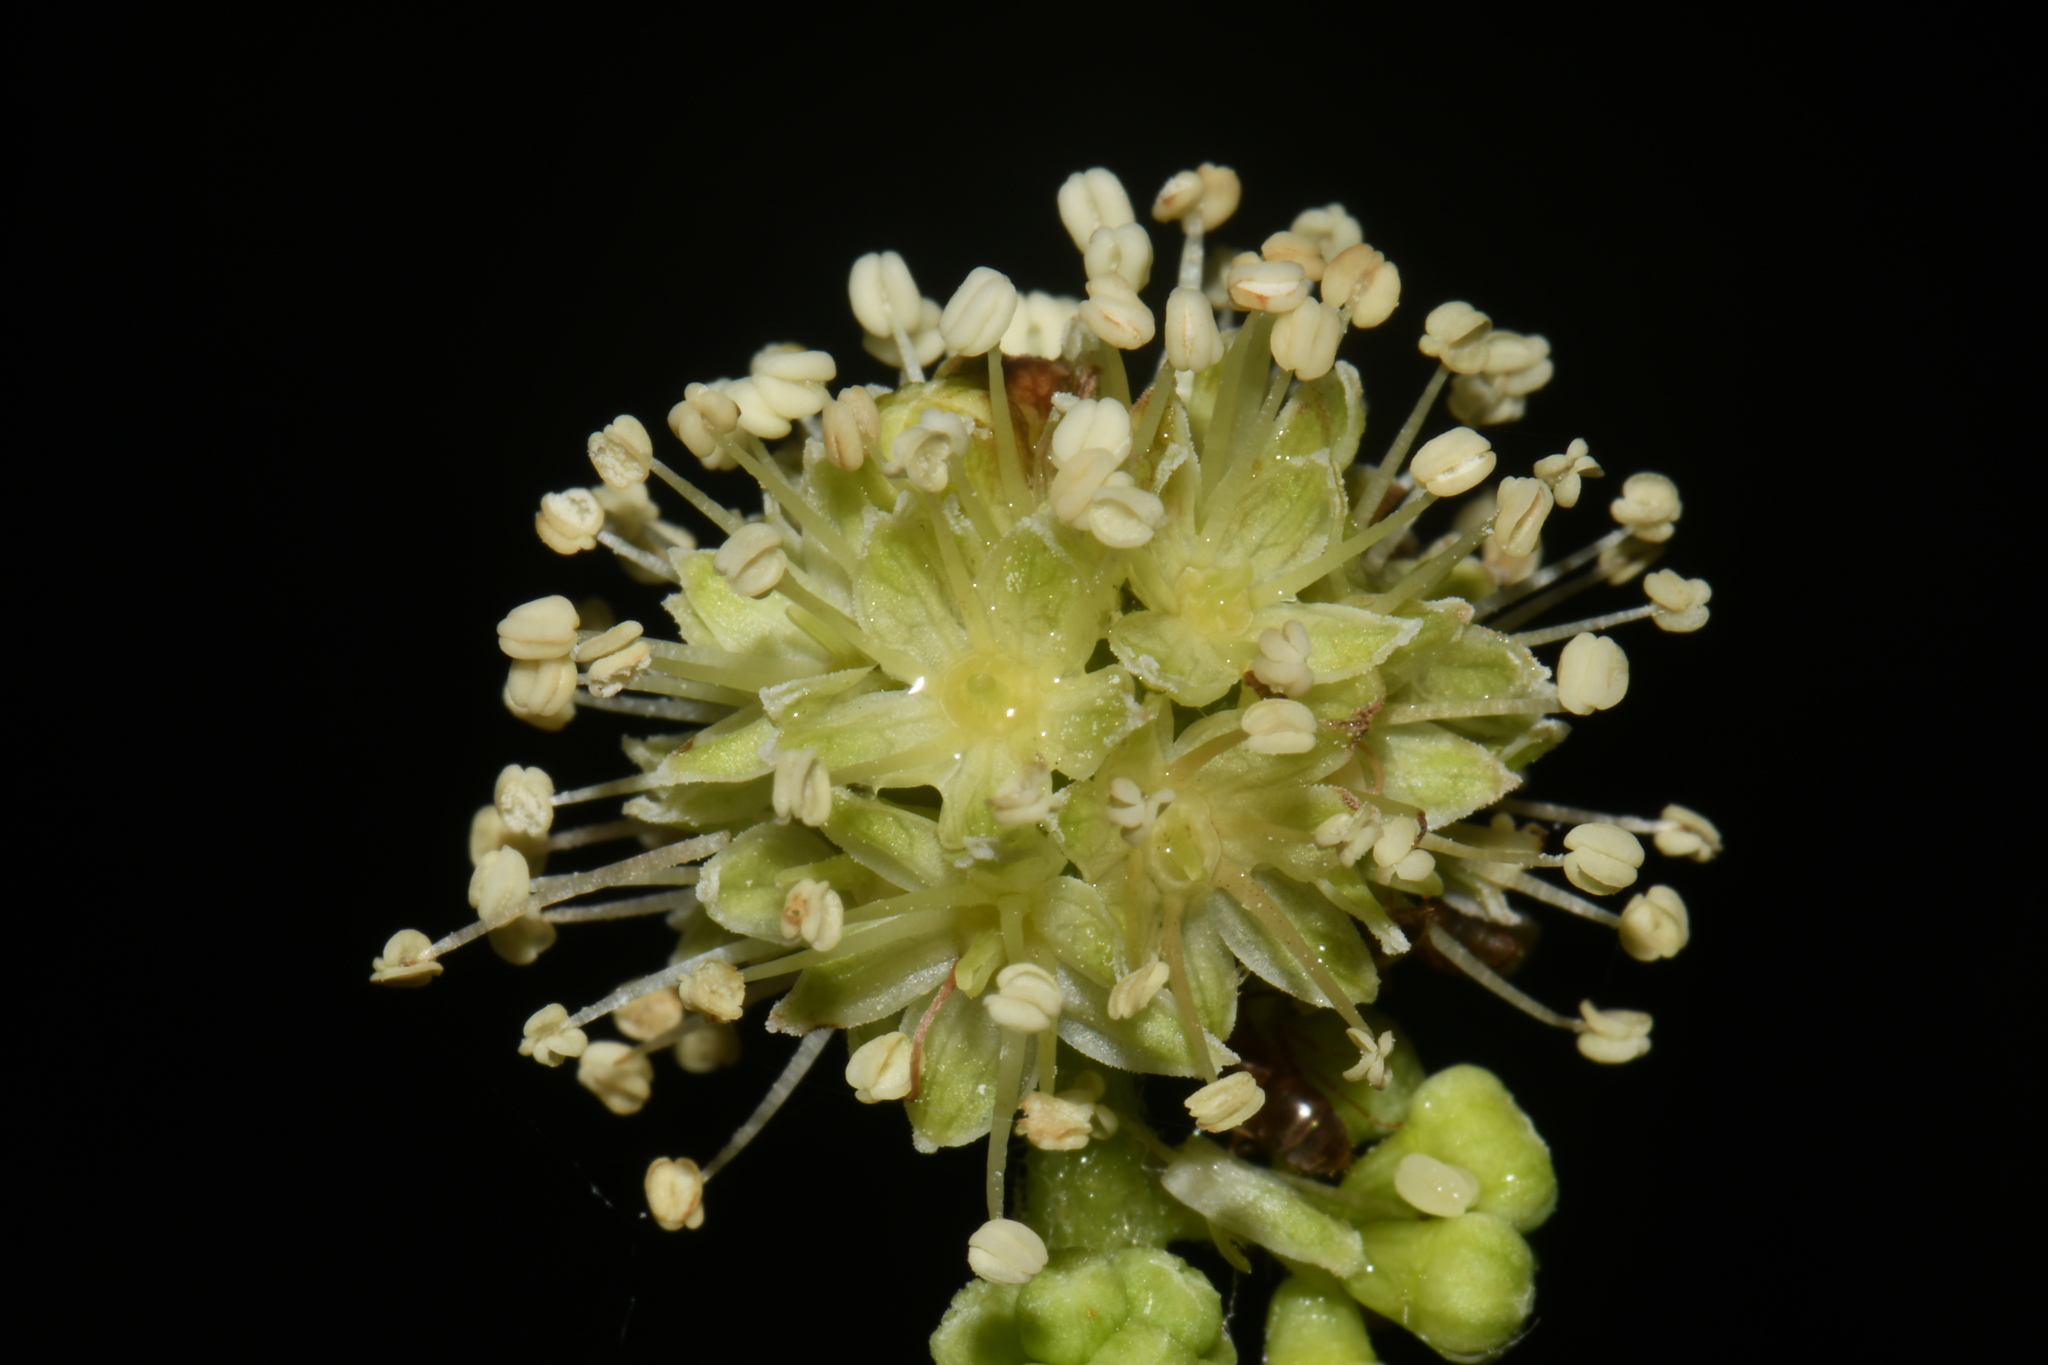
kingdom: Plantae
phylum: Tracheophyta
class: Magnoliopsida
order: Apiales
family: Araliaceae
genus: Oplopanax
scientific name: Oplopanax horridus
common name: Devil's walking-stick
